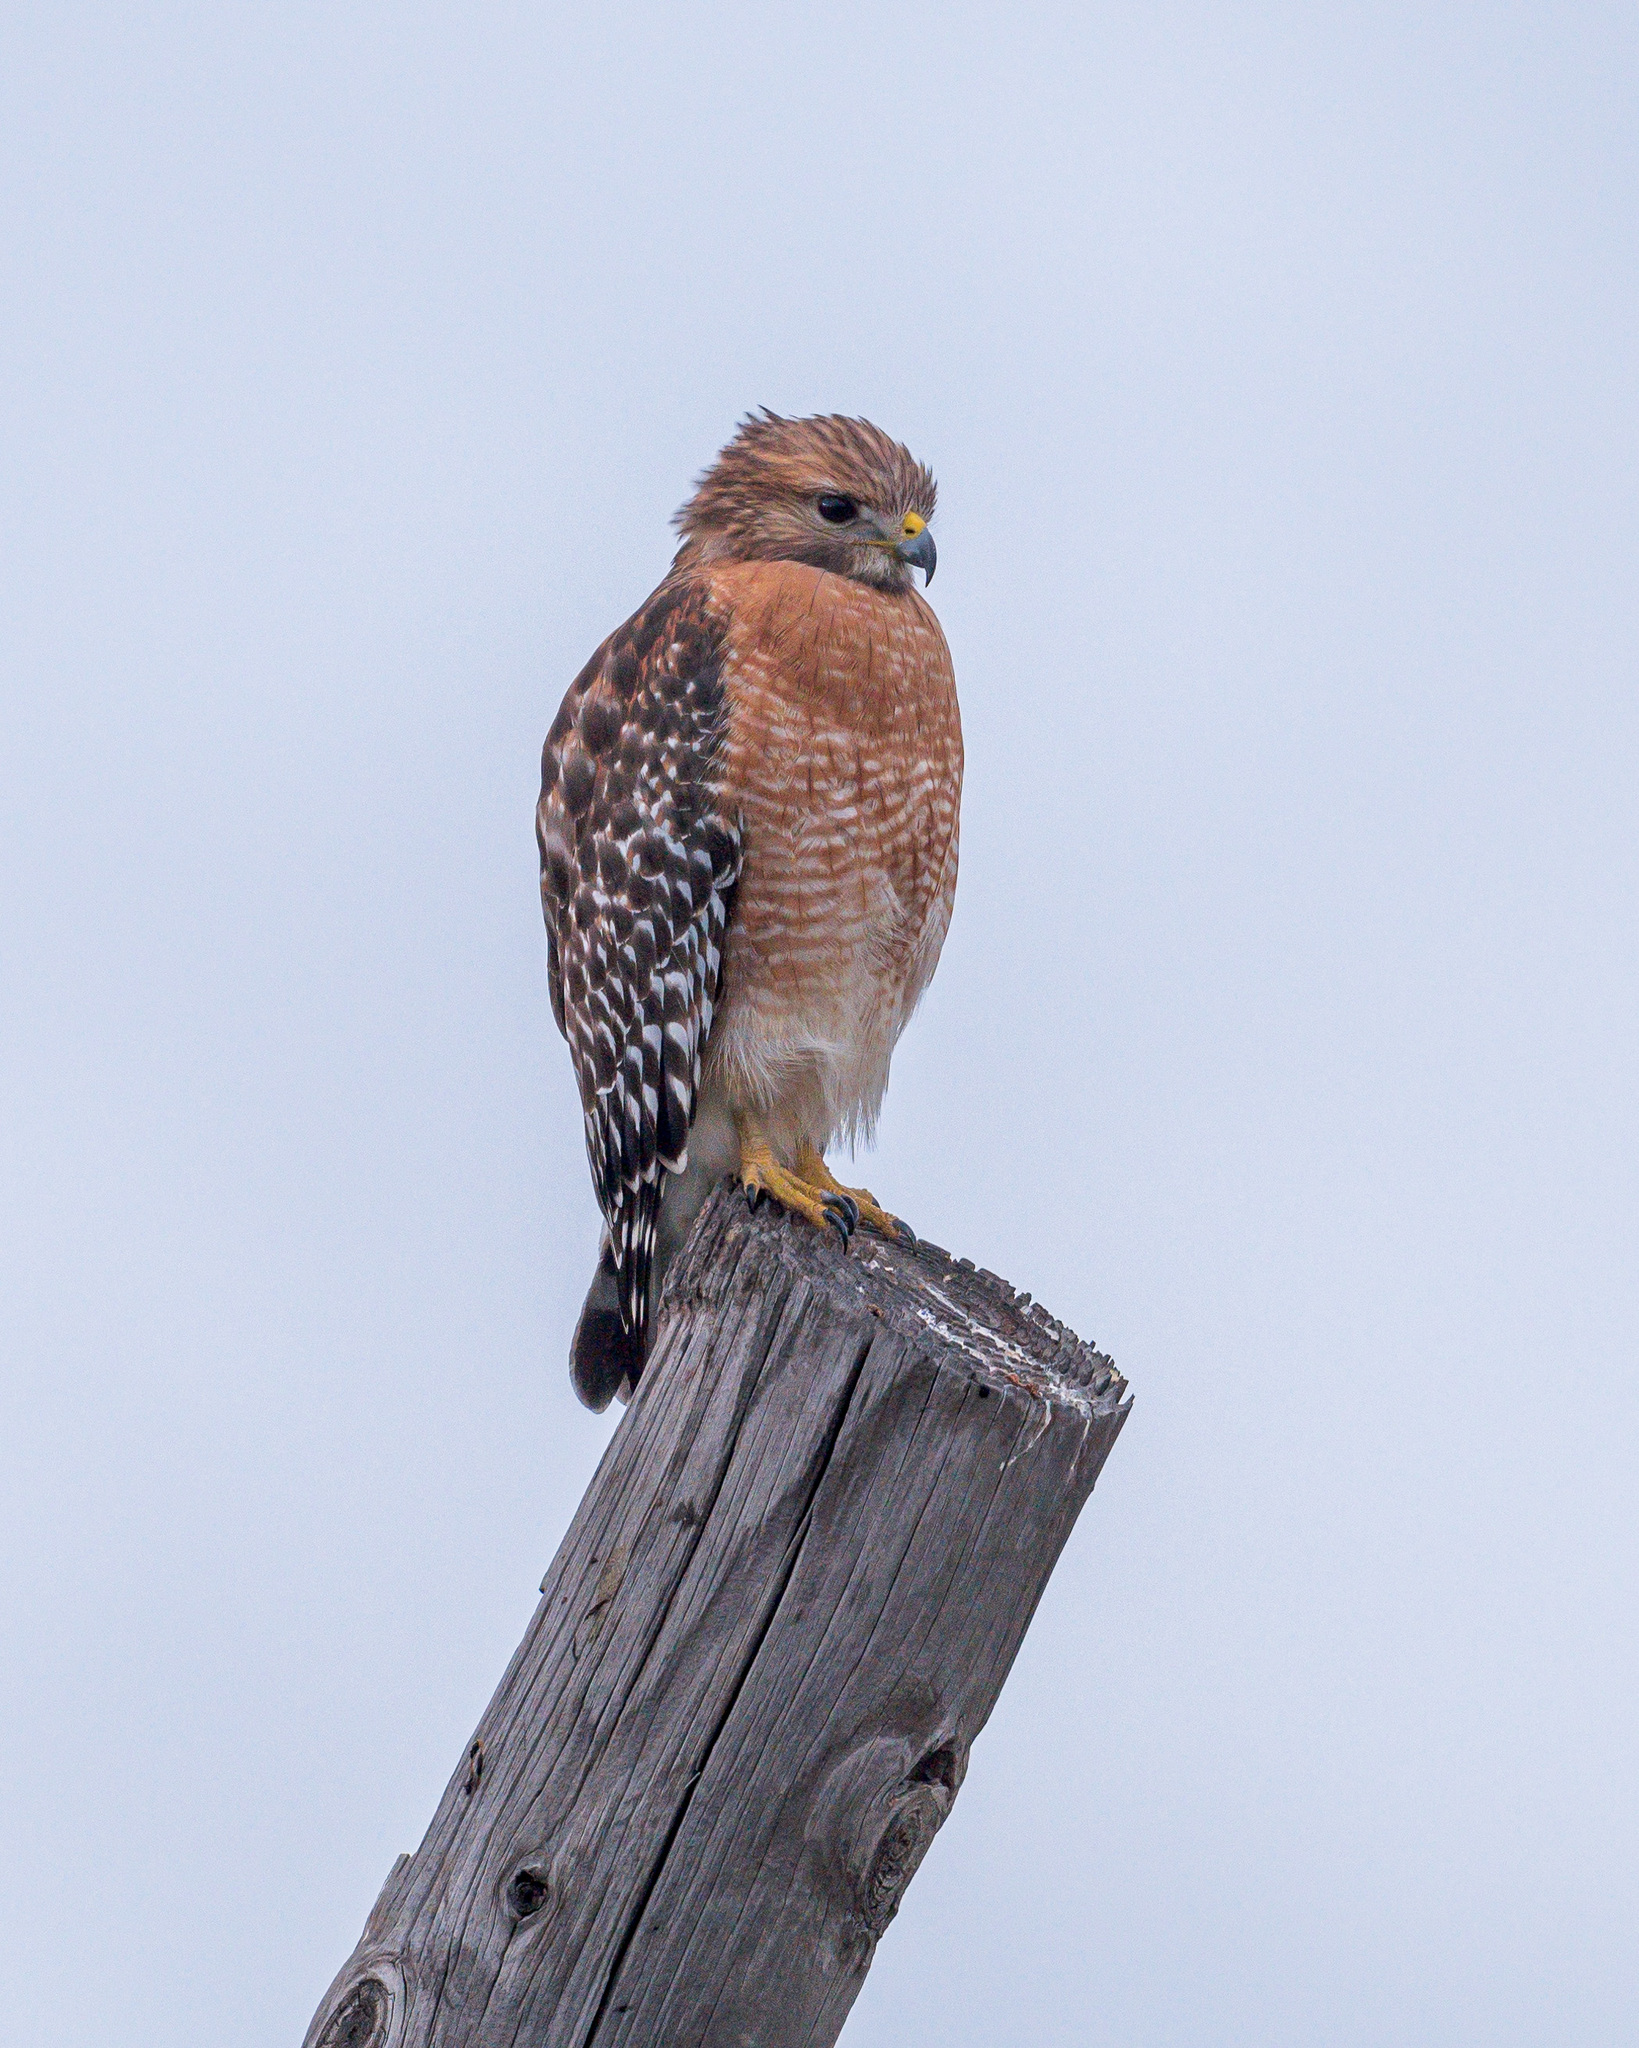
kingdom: Animalia
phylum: Chordata
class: Aves
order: Accipitriformes
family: Accipitridae
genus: Buteo
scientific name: Buteo lineatus
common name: Red-shouldered hawk
